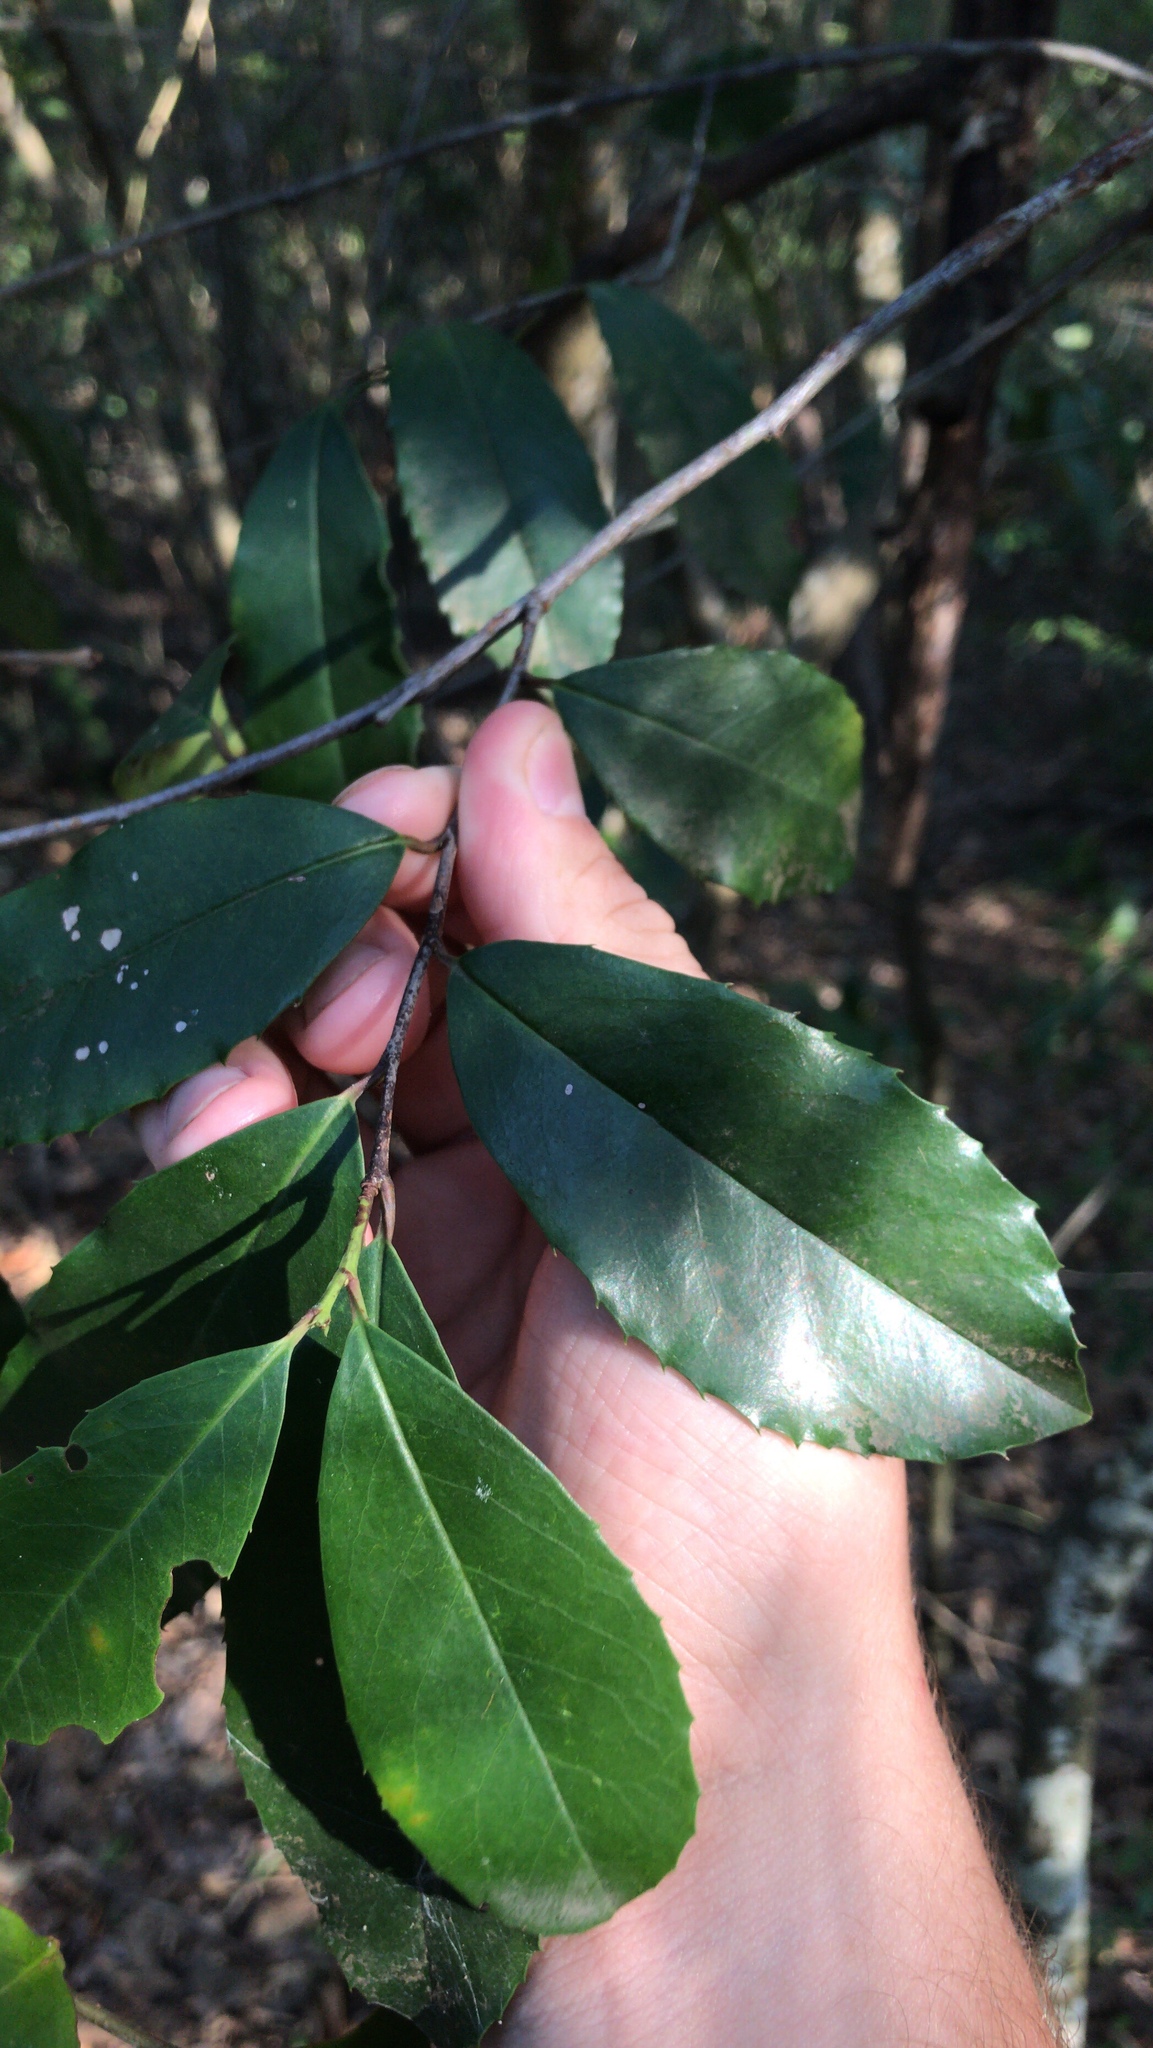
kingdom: Plantae
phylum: Tracheophyta
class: Magnoliopsida
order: Rosales
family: Rosaceae
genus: Prunus
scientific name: Prunus caroliniana
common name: Carolina laurel cherry
